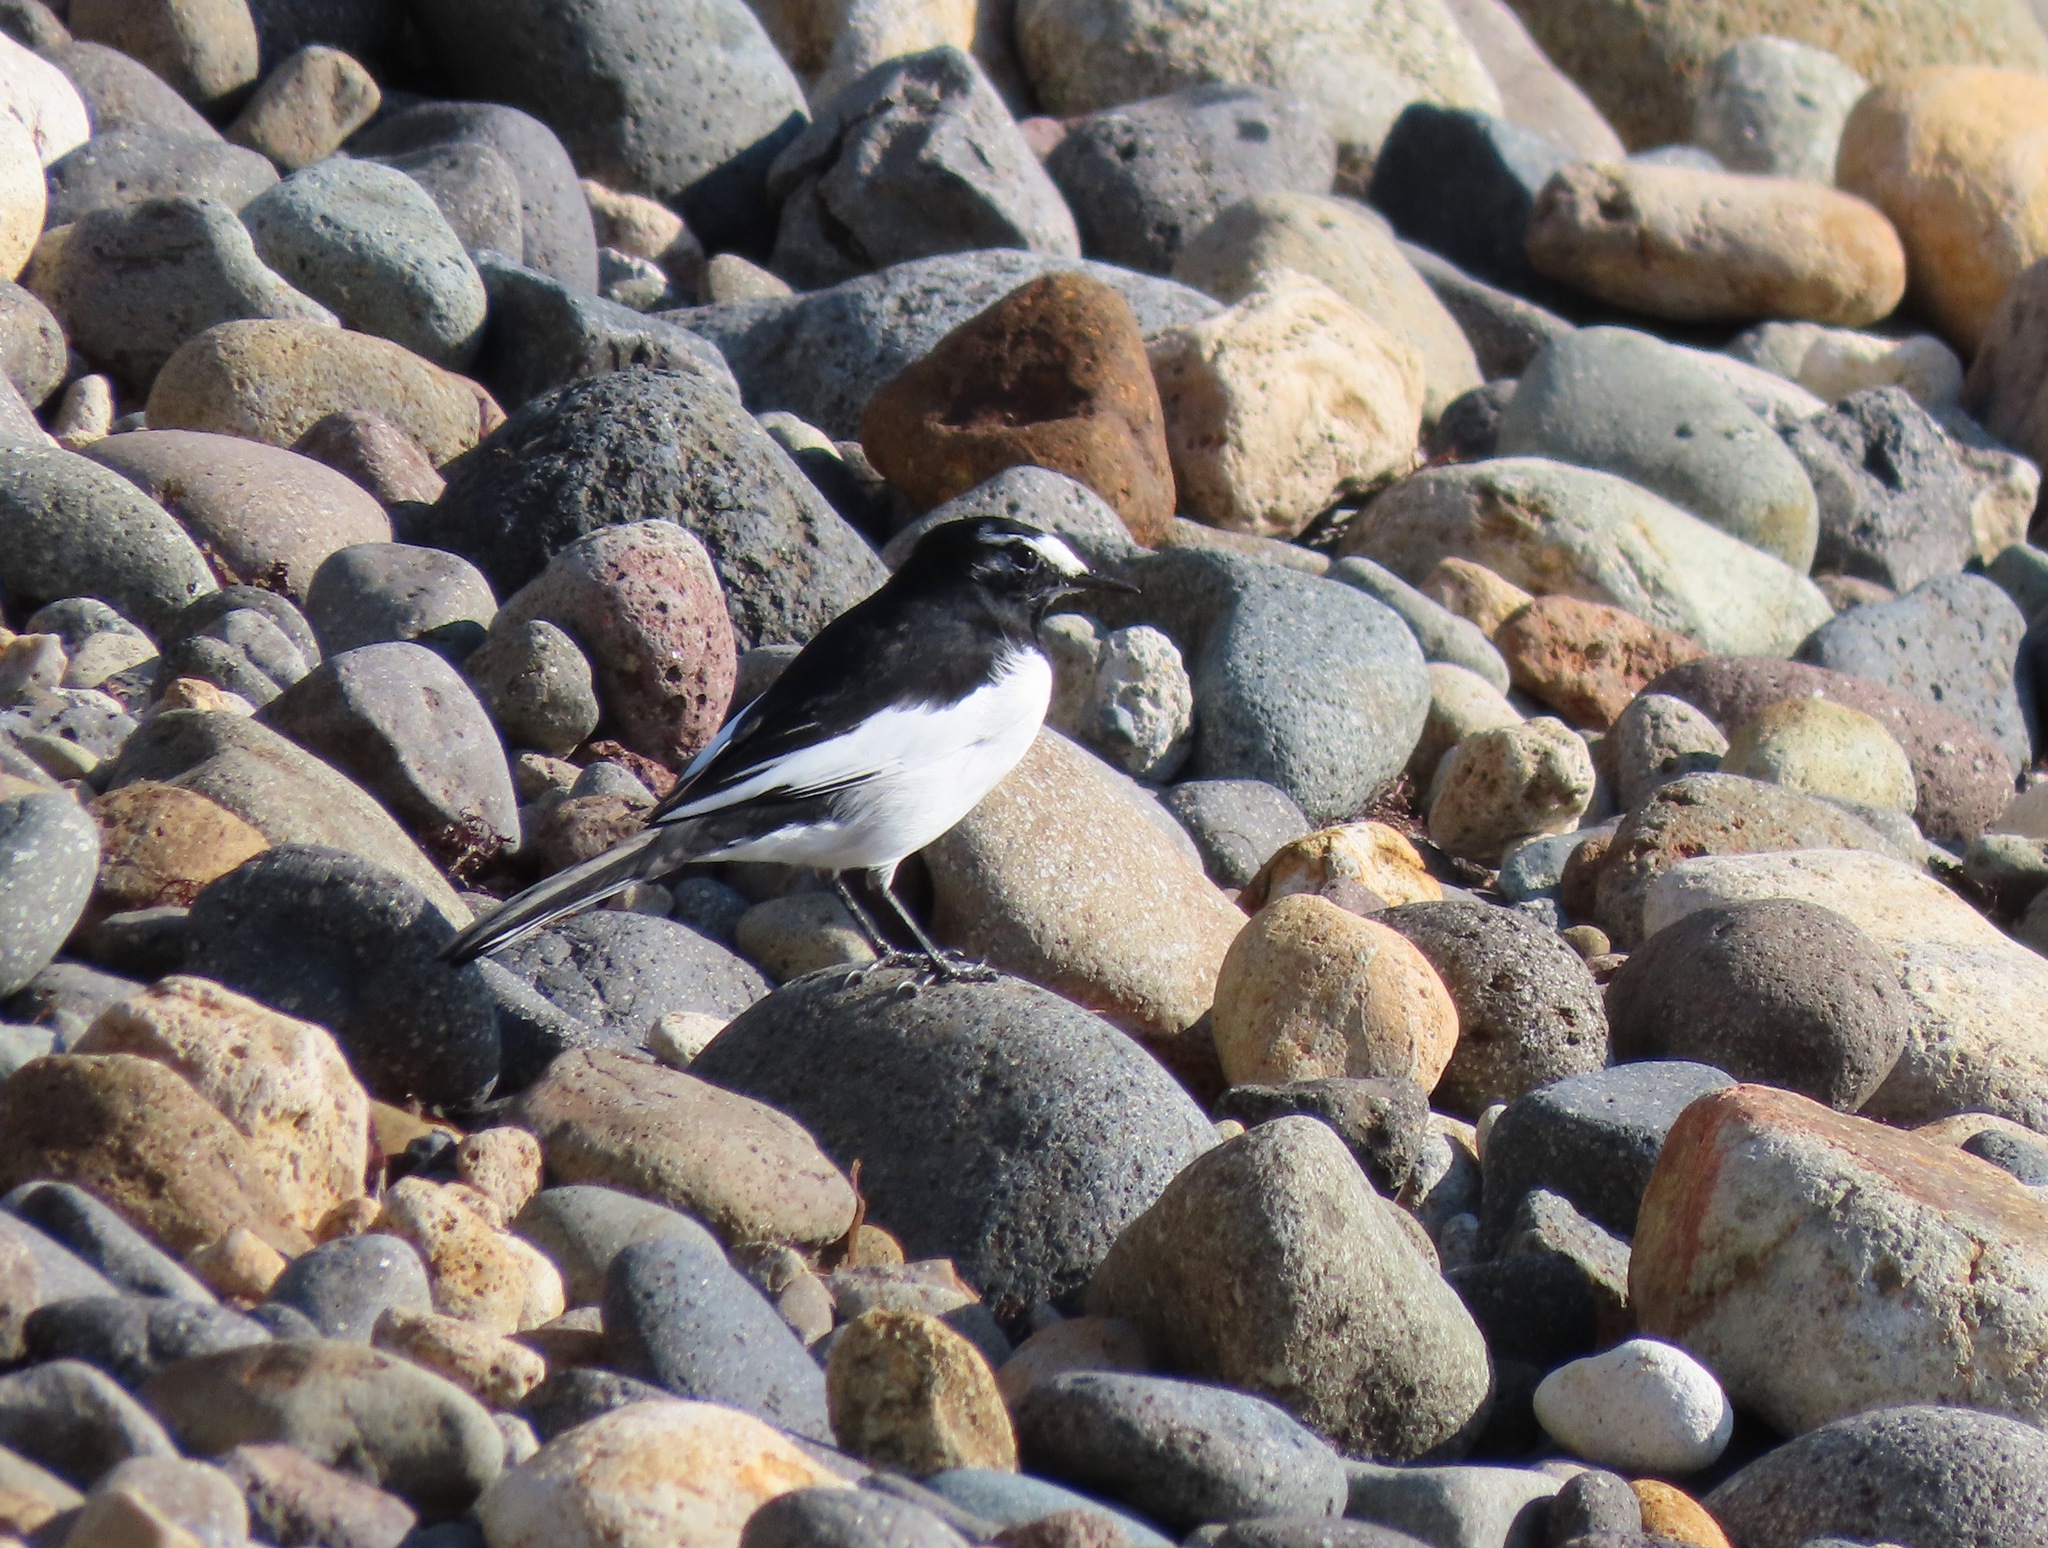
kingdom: Animalia
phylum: Chordata
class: Aves
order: Passeriformes
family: Motacillidae
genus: Motacilla
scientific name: Motacilla grandis
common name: Japanese wagtail
